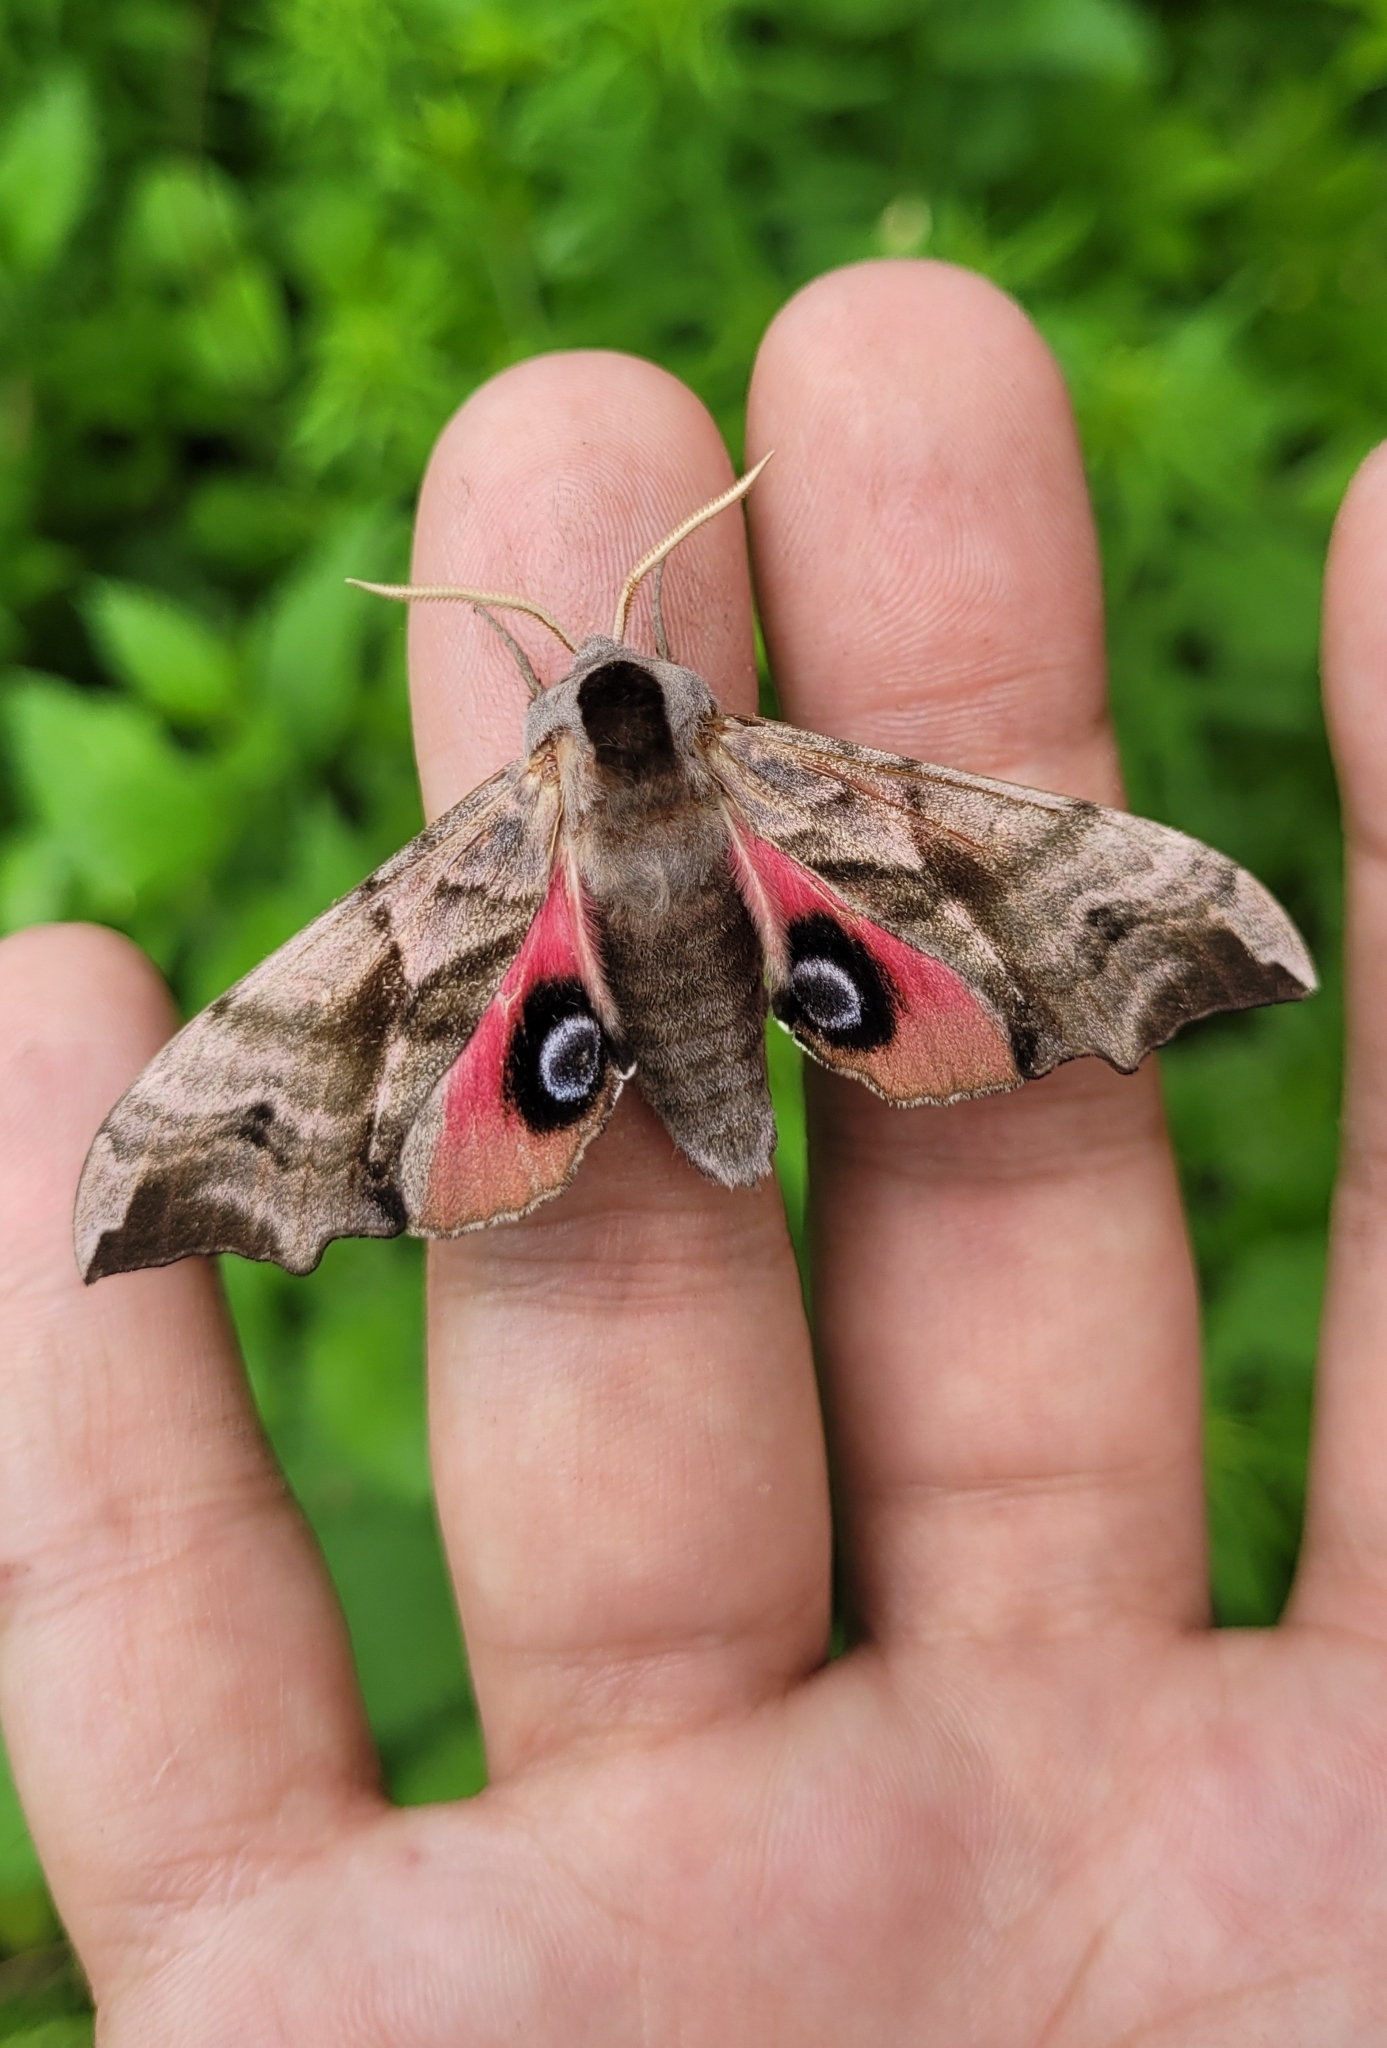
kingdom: Animalia
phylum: Arthropoda
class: Insecta
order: Lepidoptera
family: Sphingidae
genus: Smerinthus
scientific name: Smerinthus ocellata
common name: Eyed hawk-moth
